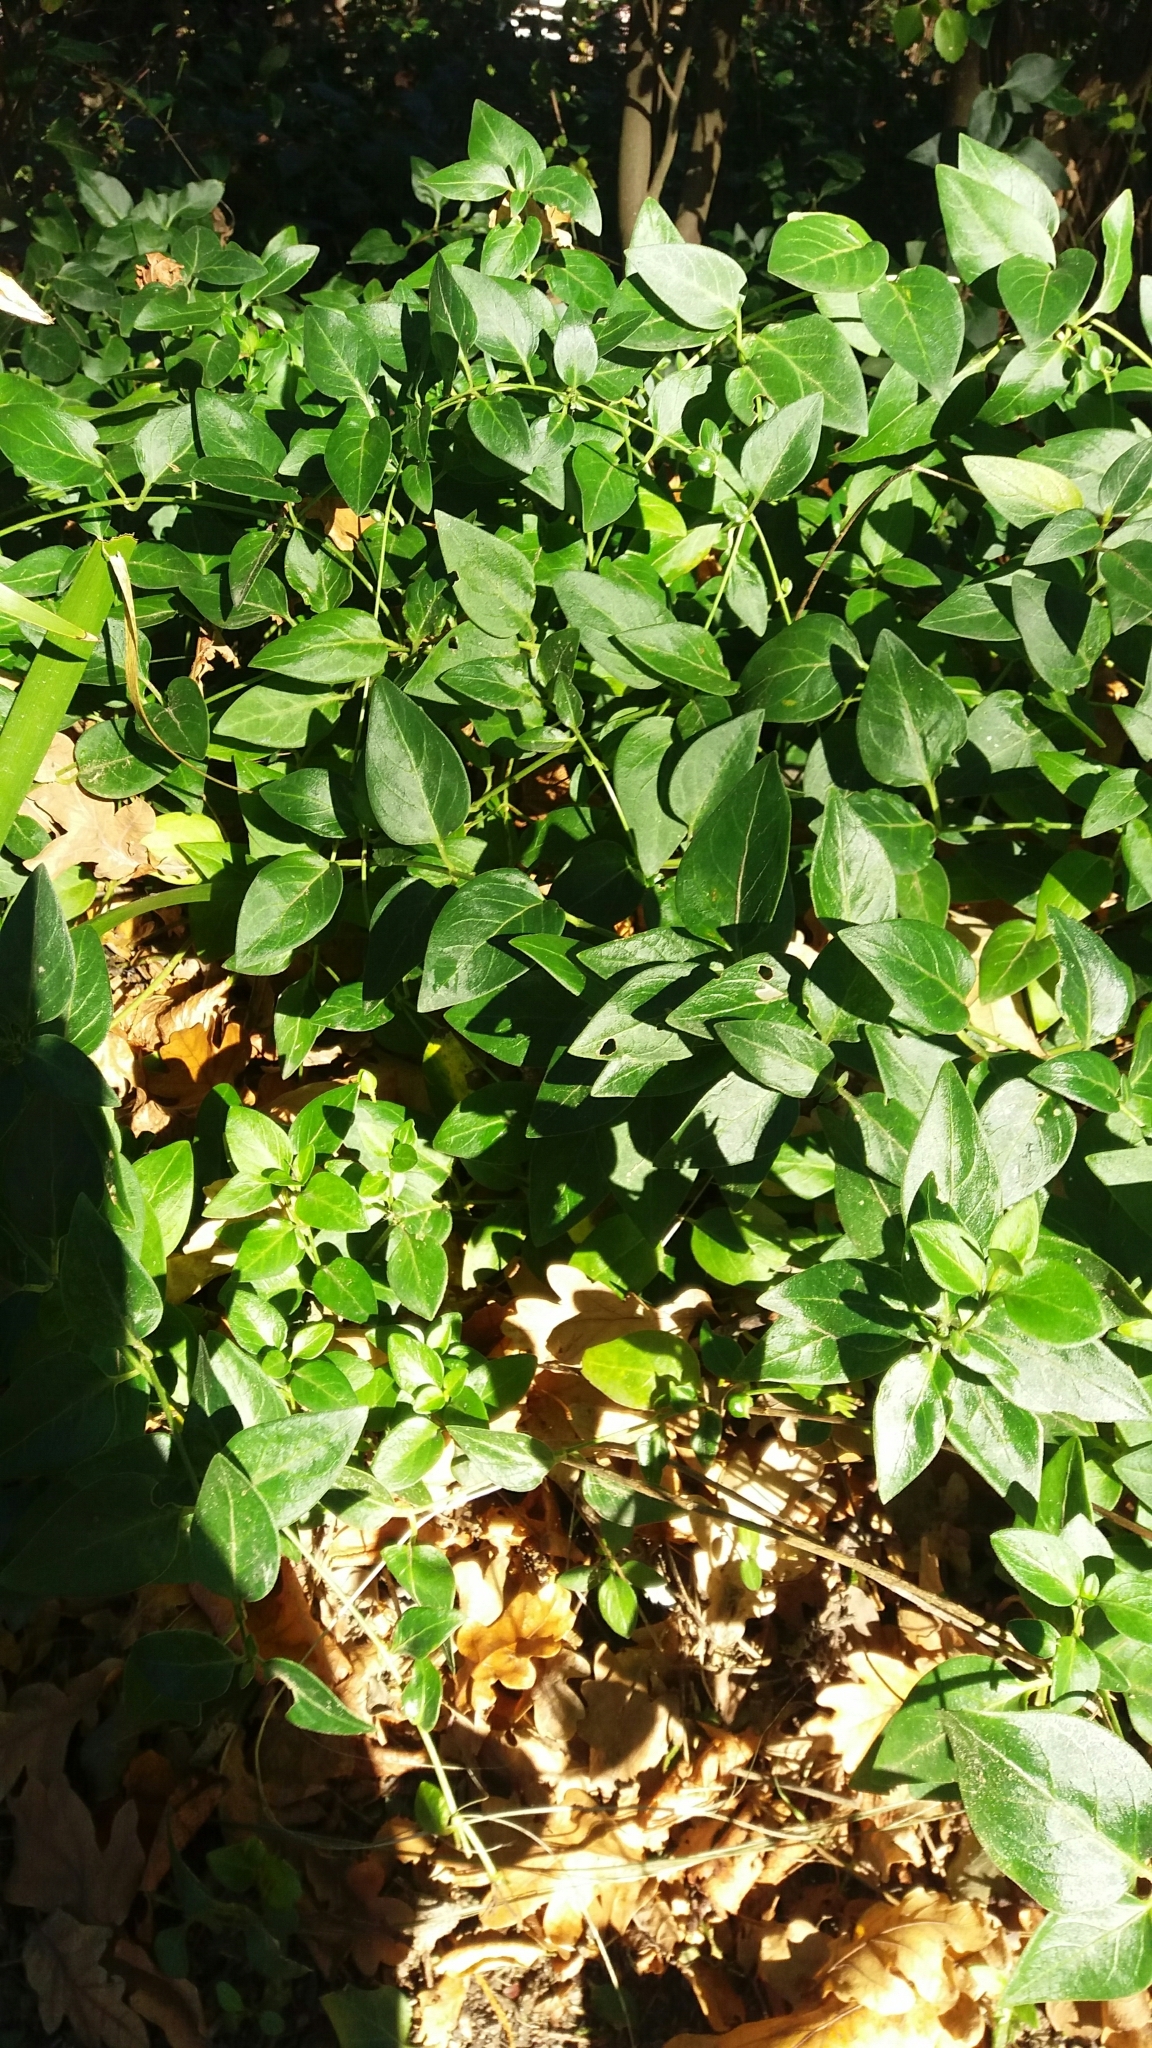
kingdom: Plantae
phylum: Tracheophyta
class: Magnoliopsida
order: Gentianales
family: Apocynaceae
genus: Vinca
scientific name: Vinca major
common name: Greater periwinkle
